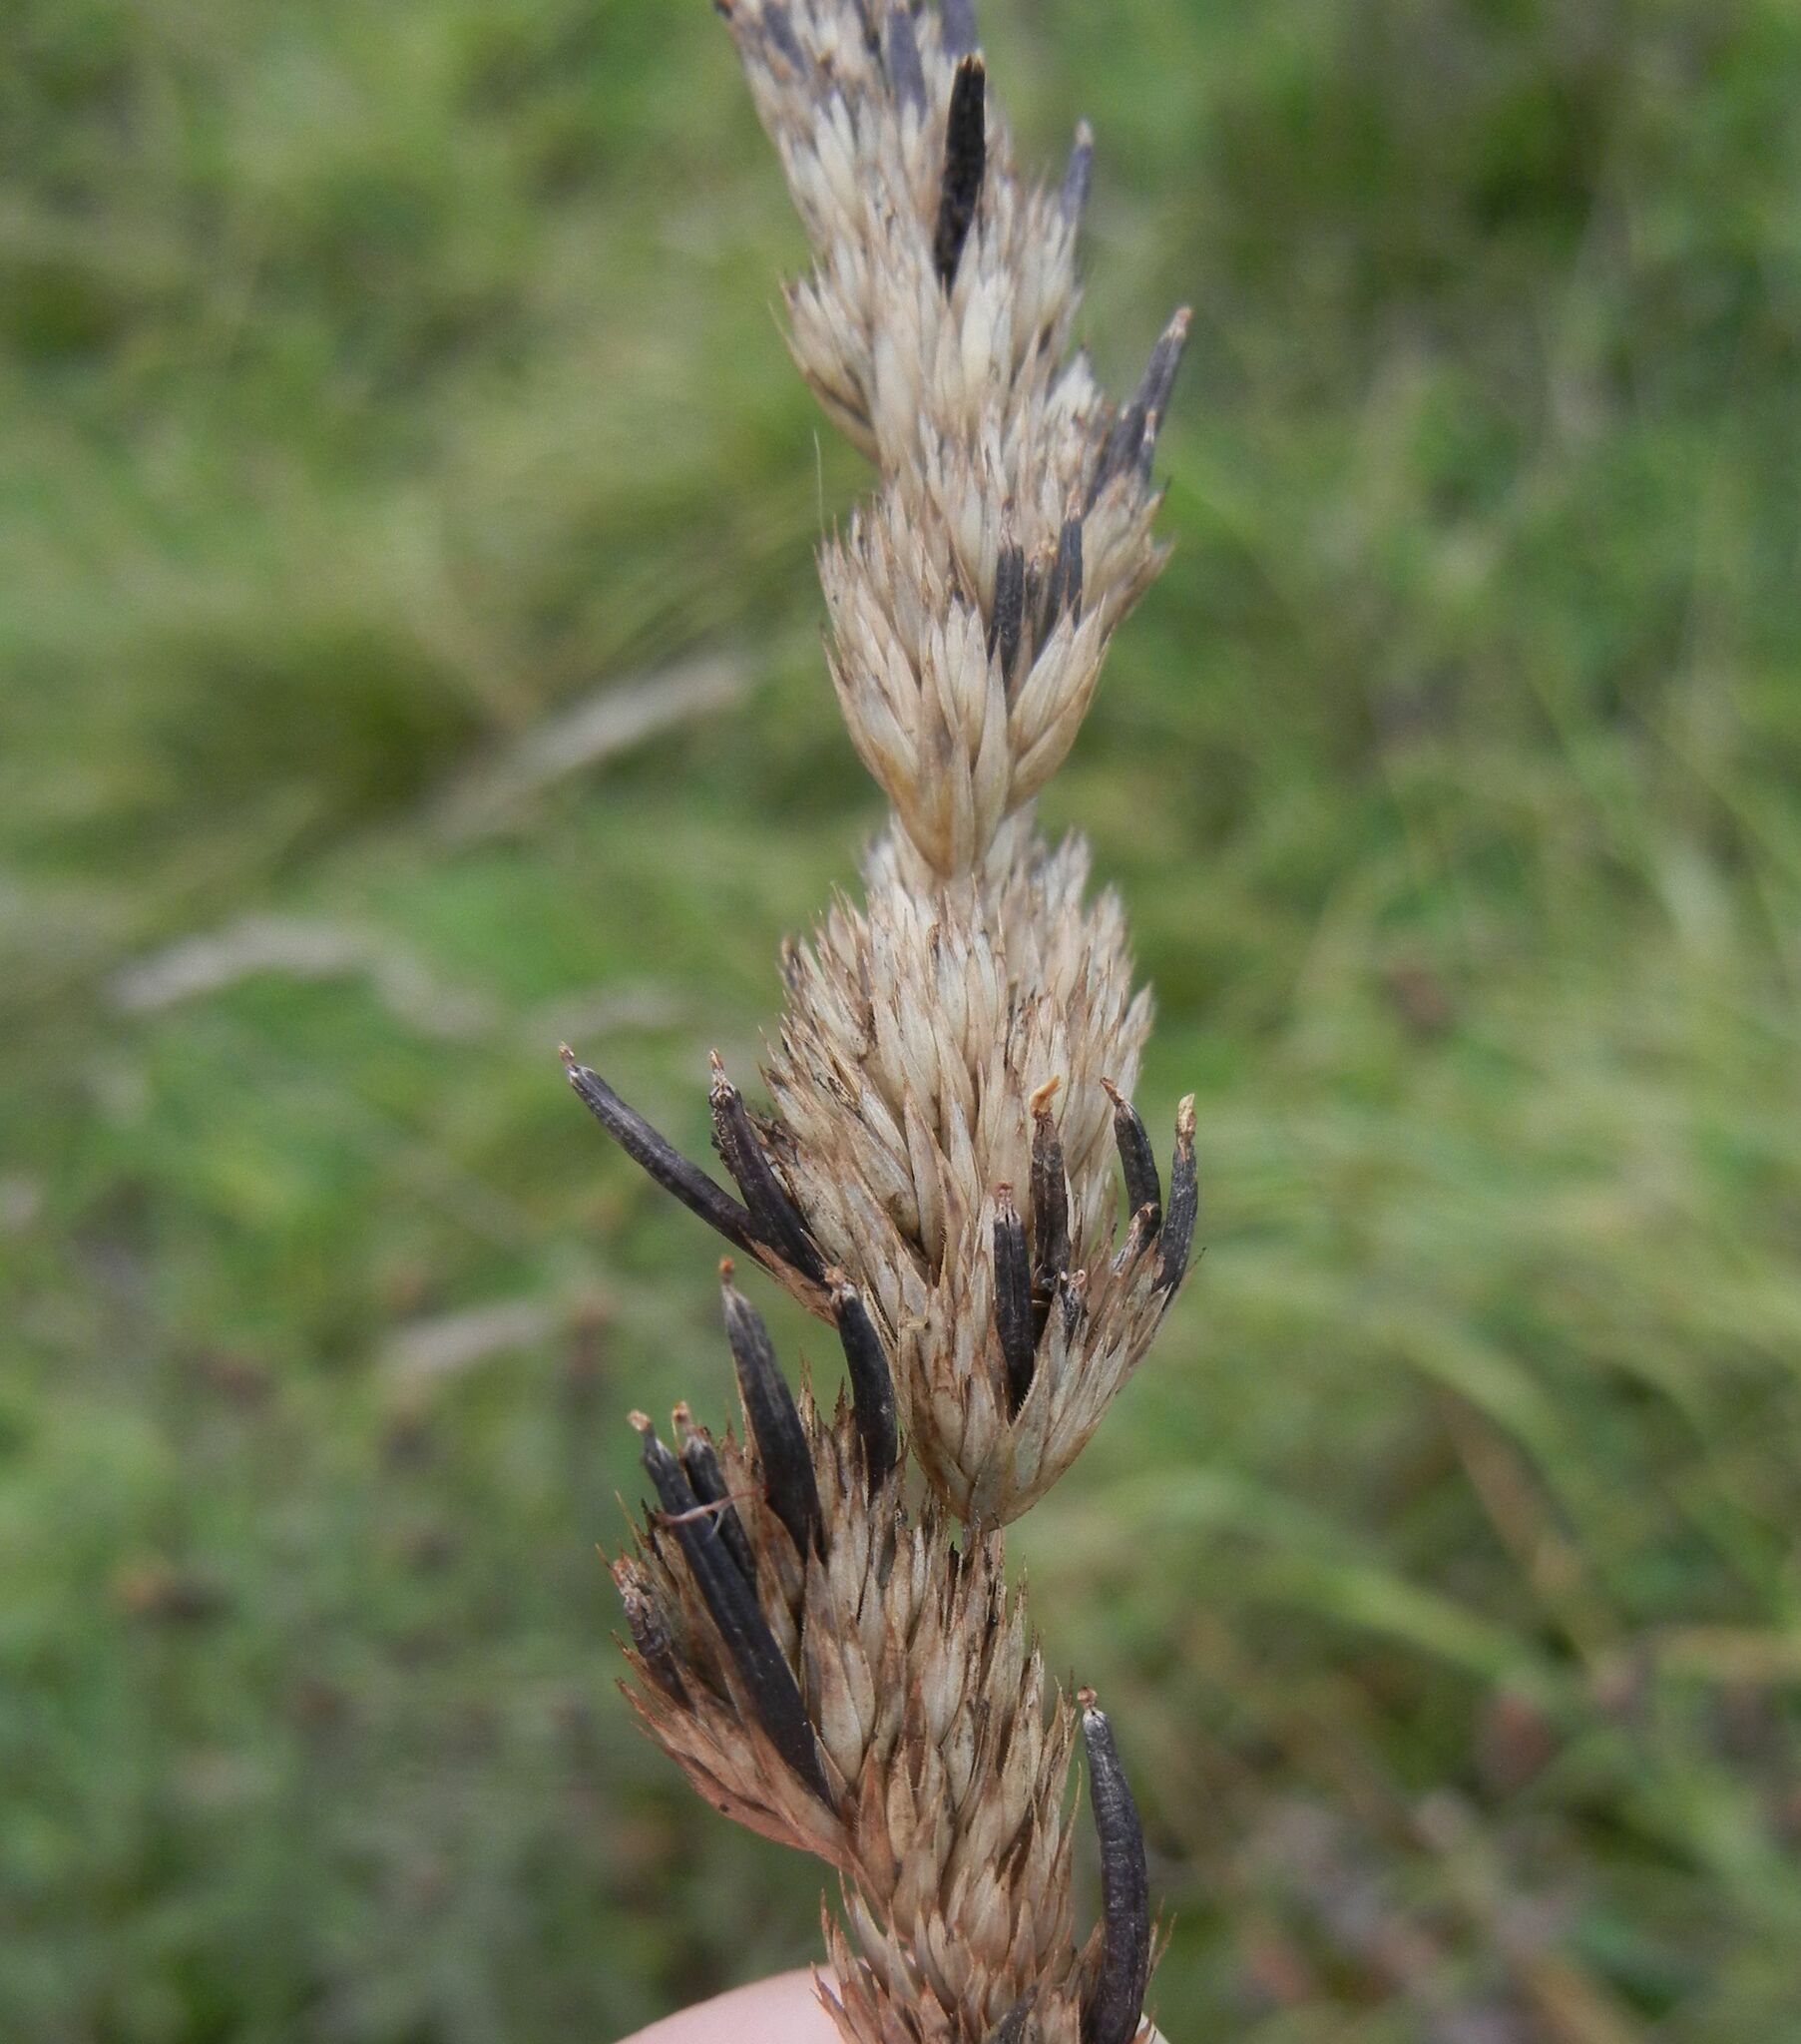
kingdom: Fungi
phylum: Ascomycota
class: Sordariomycetes
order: Hypocreales
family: Clavicipitaceae
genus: Claviceps
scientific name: Claviceps purpurea
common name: Rye ergot
